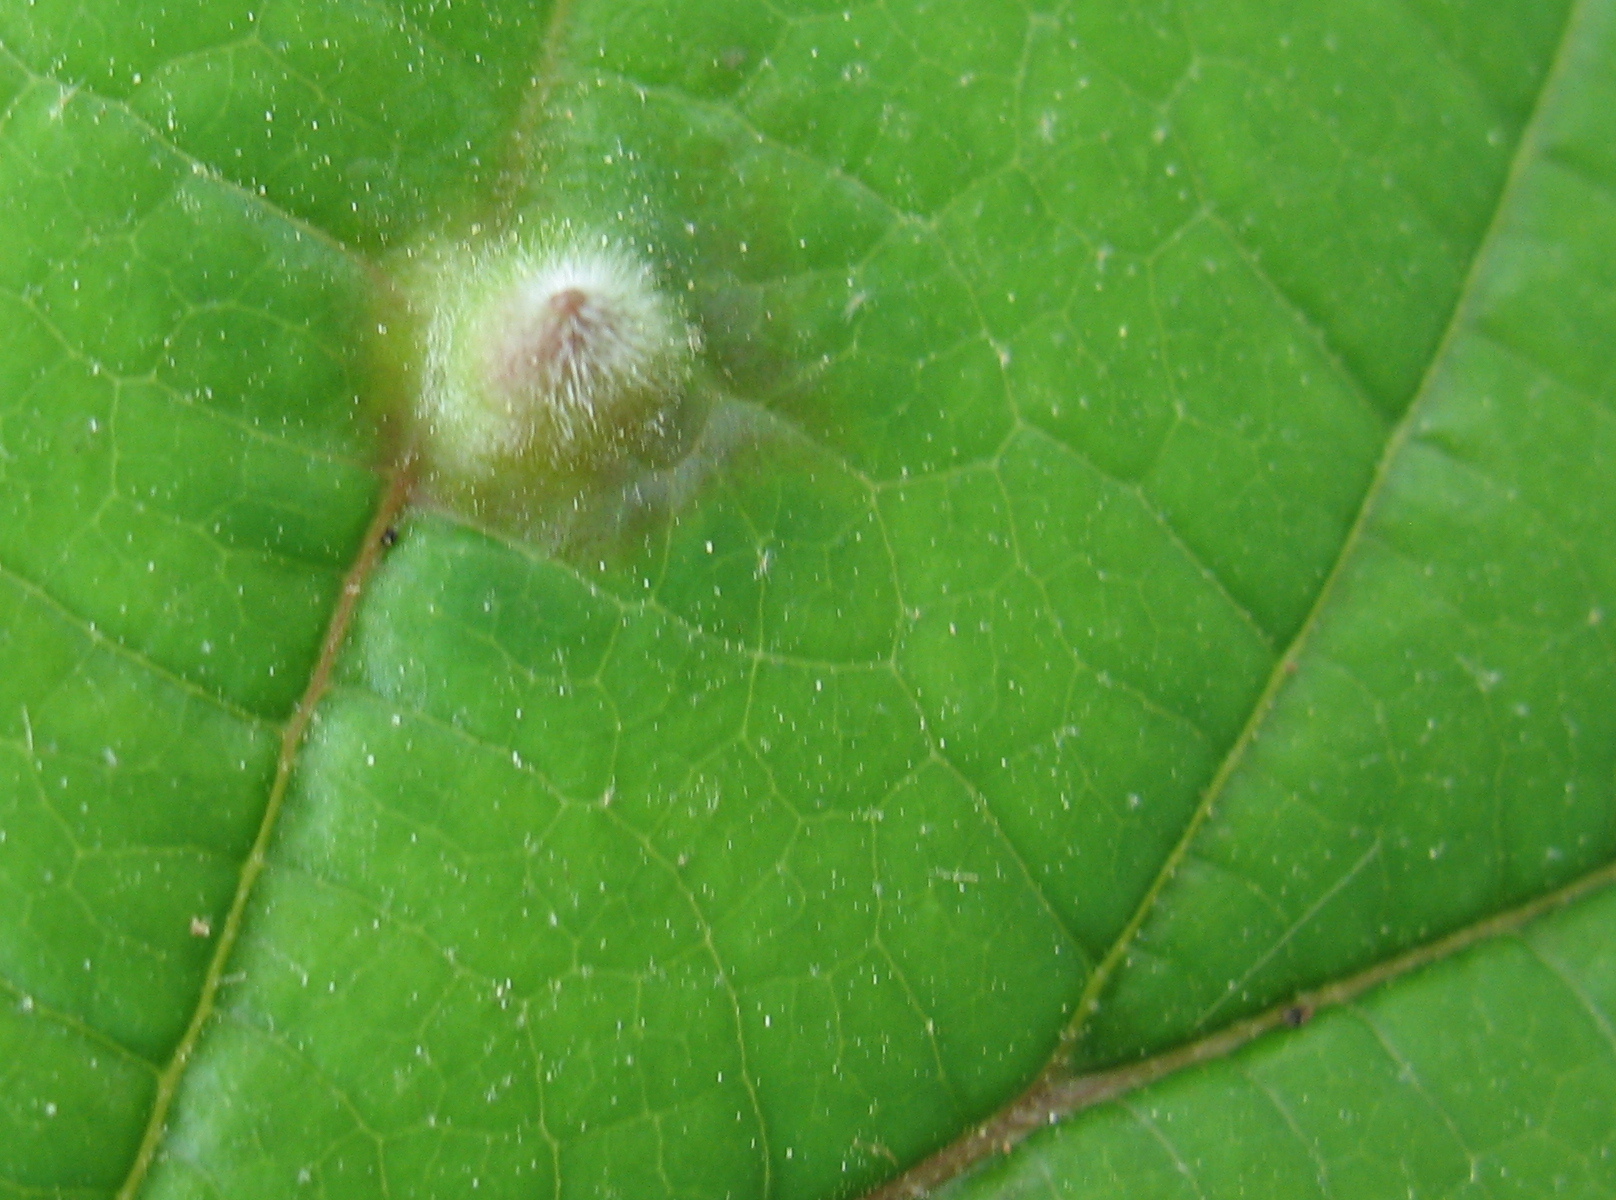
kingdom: Animalia
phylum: Arthropoda
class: Insecta
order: Hemiptera
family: Aphididae
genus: Hormaphis
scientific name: Hormaphis hamamelidis
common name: Witch-hazel cone gall aphid
